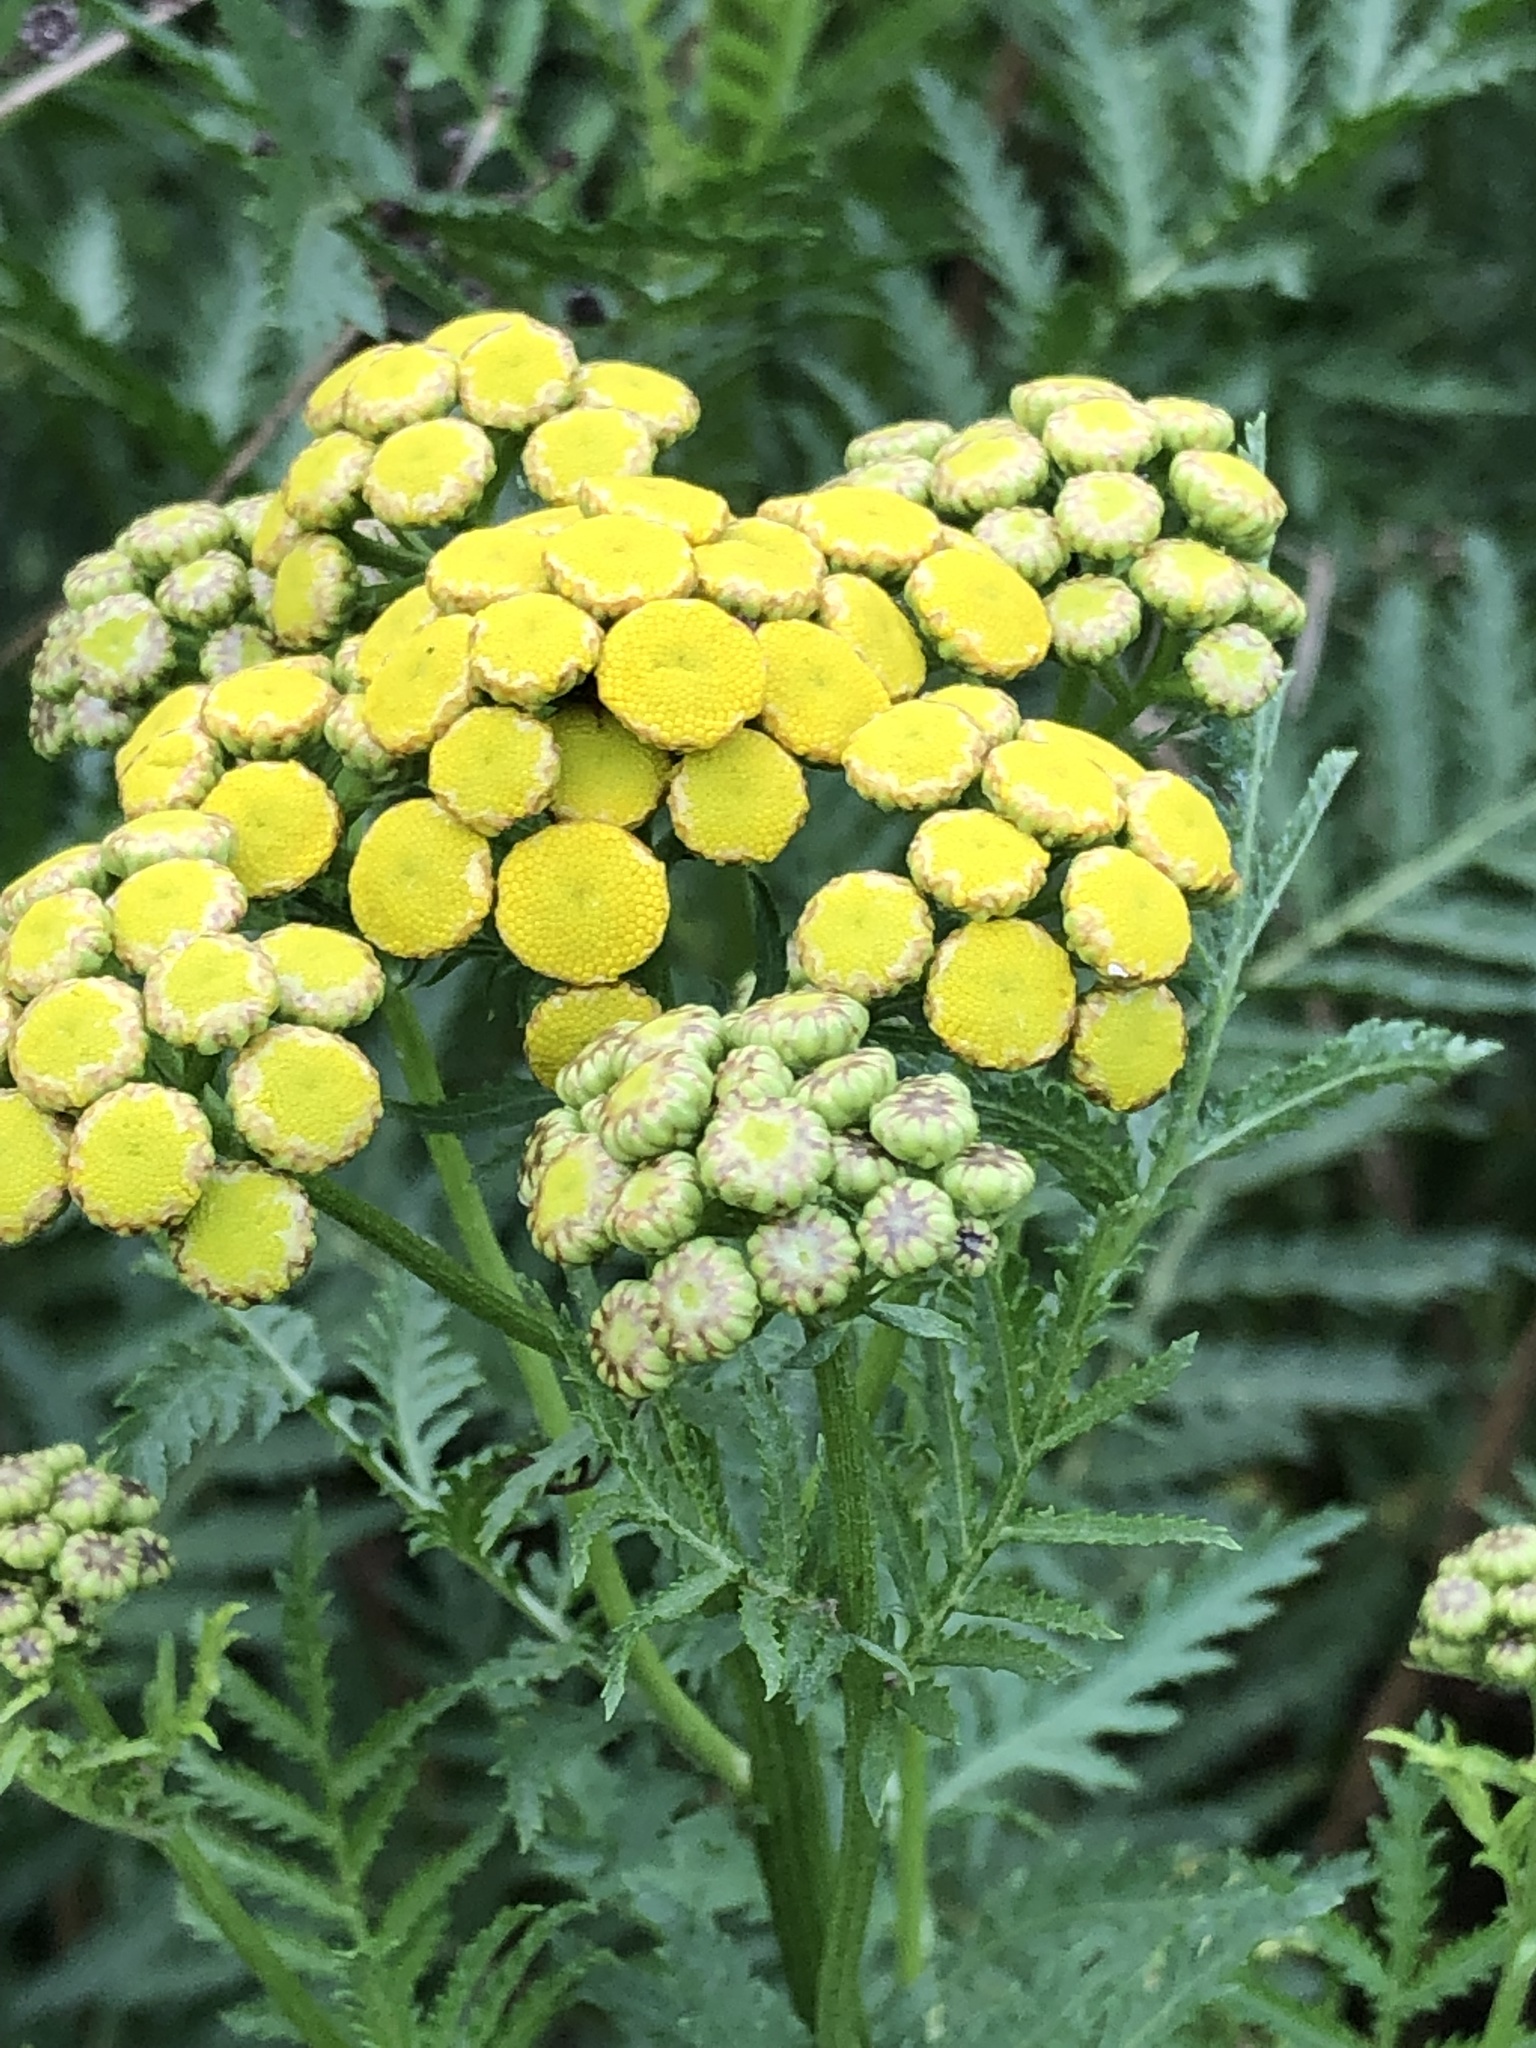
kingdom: Plantae
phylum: Tracheophyta
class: Magnoliopsida
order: Asterales
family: Asteraceae
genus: Tanacetum
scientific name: Tanacetum vulgare
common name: Common tansy
